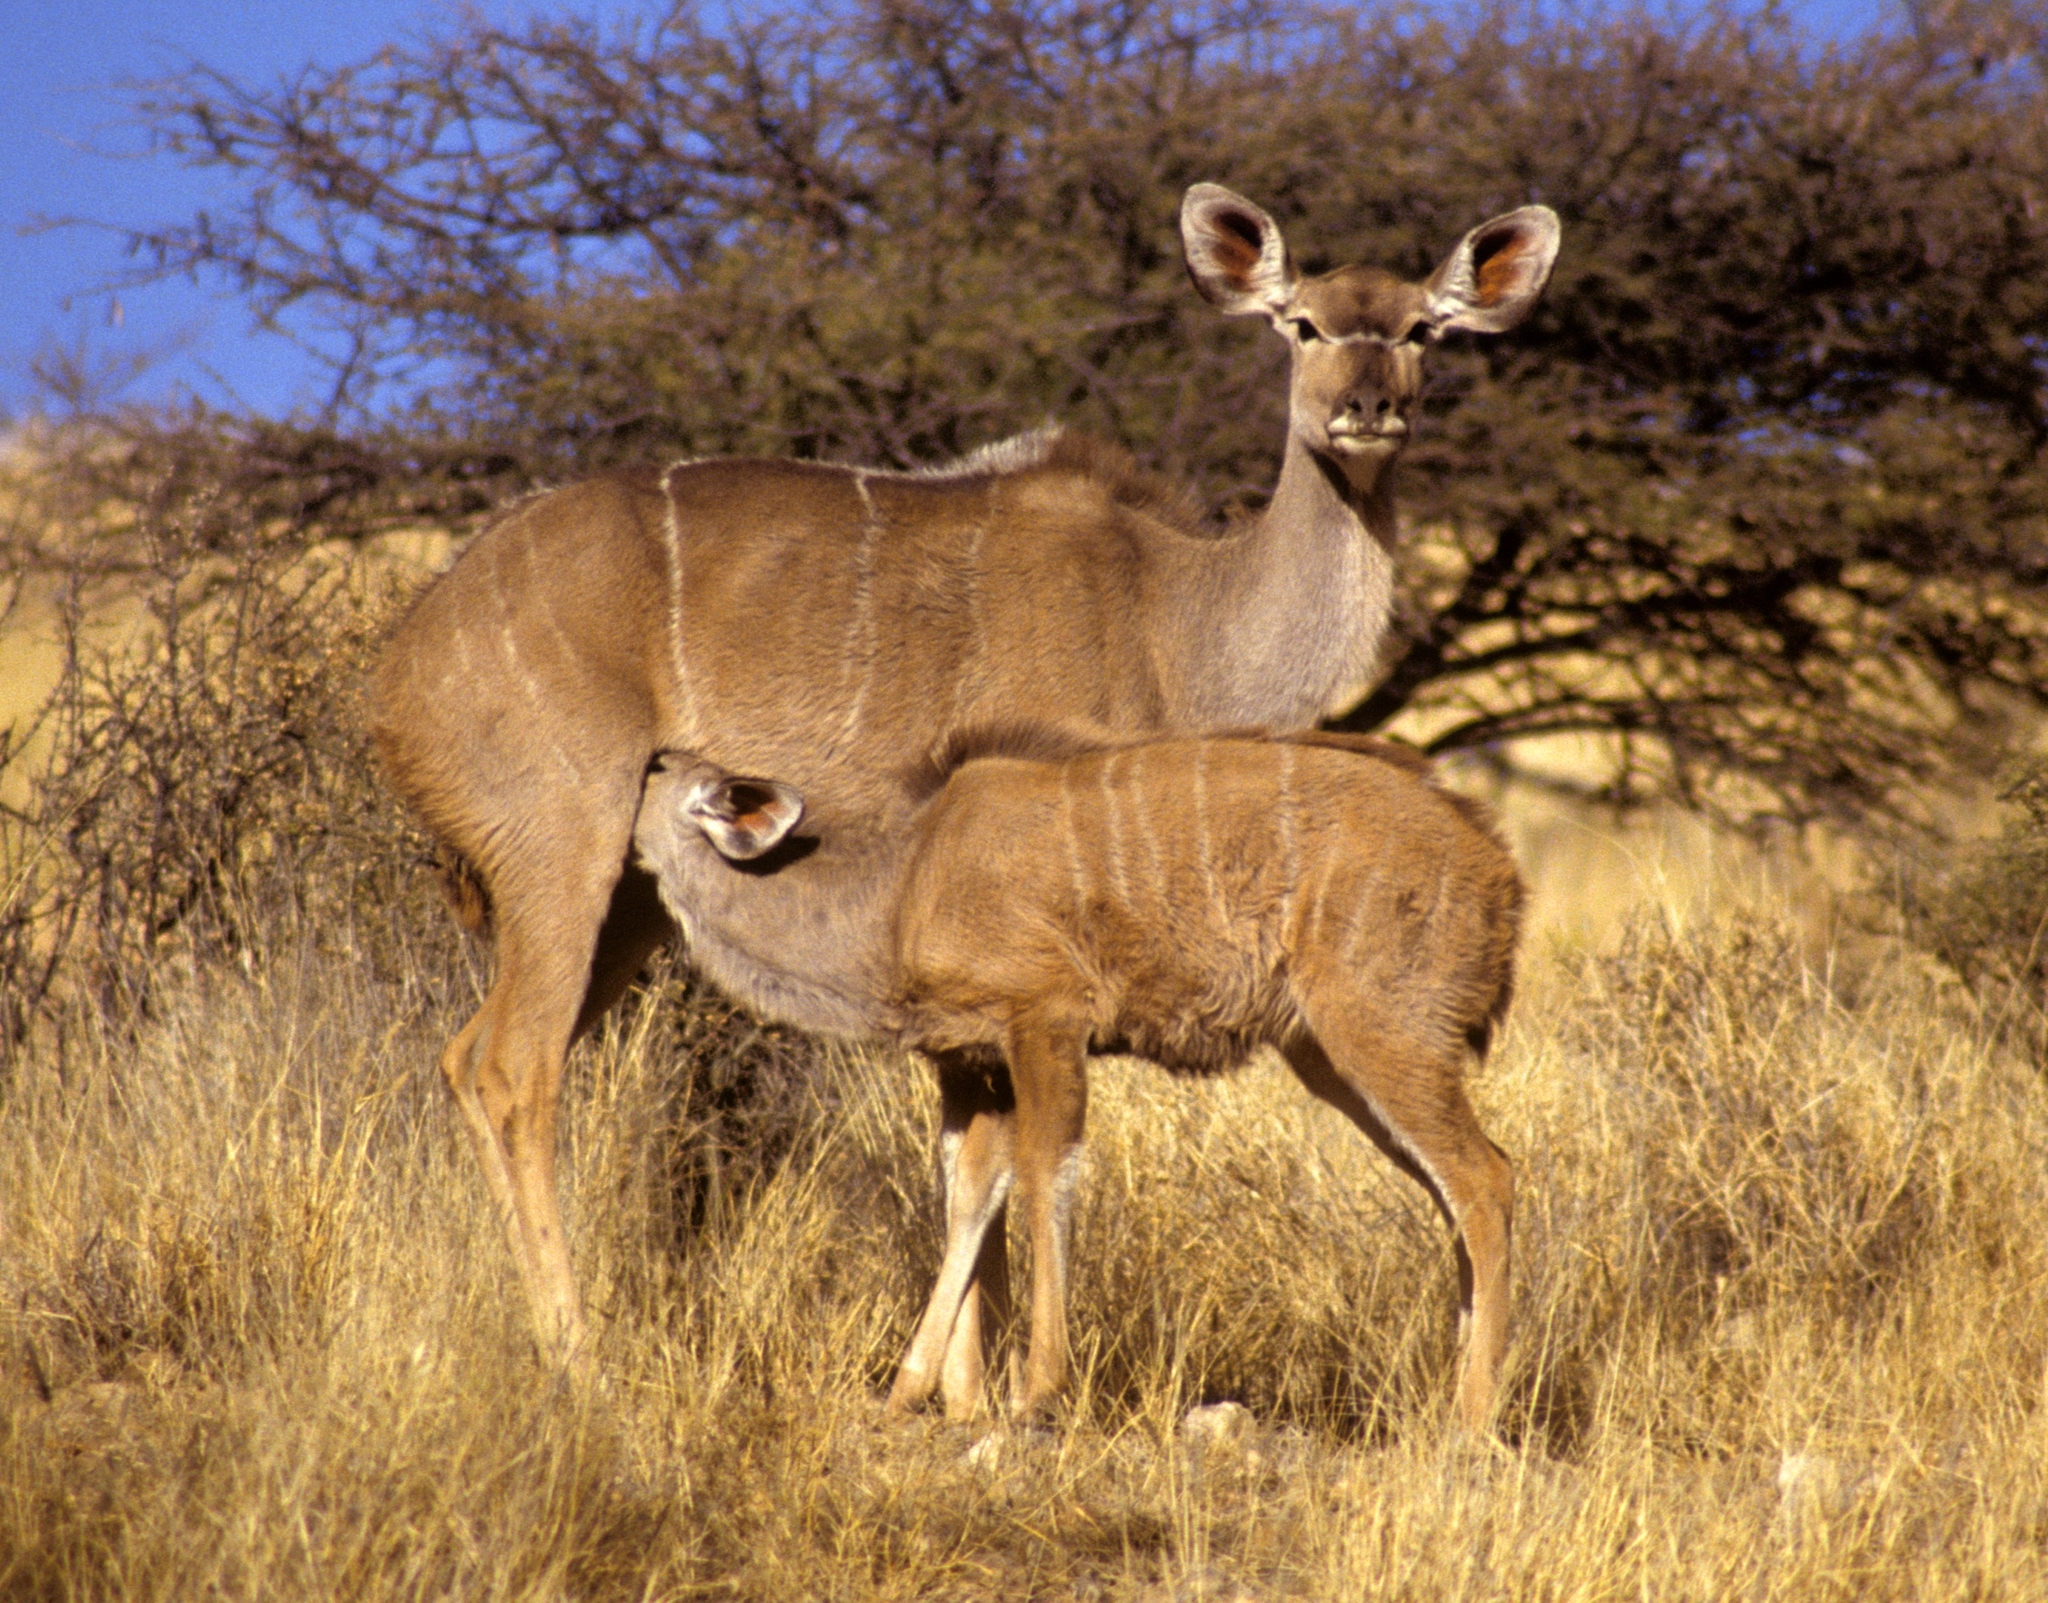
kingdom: Animalia
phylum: Chordata
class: Mammalia
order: Artiodactyla
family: Bovidae
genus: Tragelaphus
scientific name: Tragelaphus strepsiceros
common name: Greater kudu
